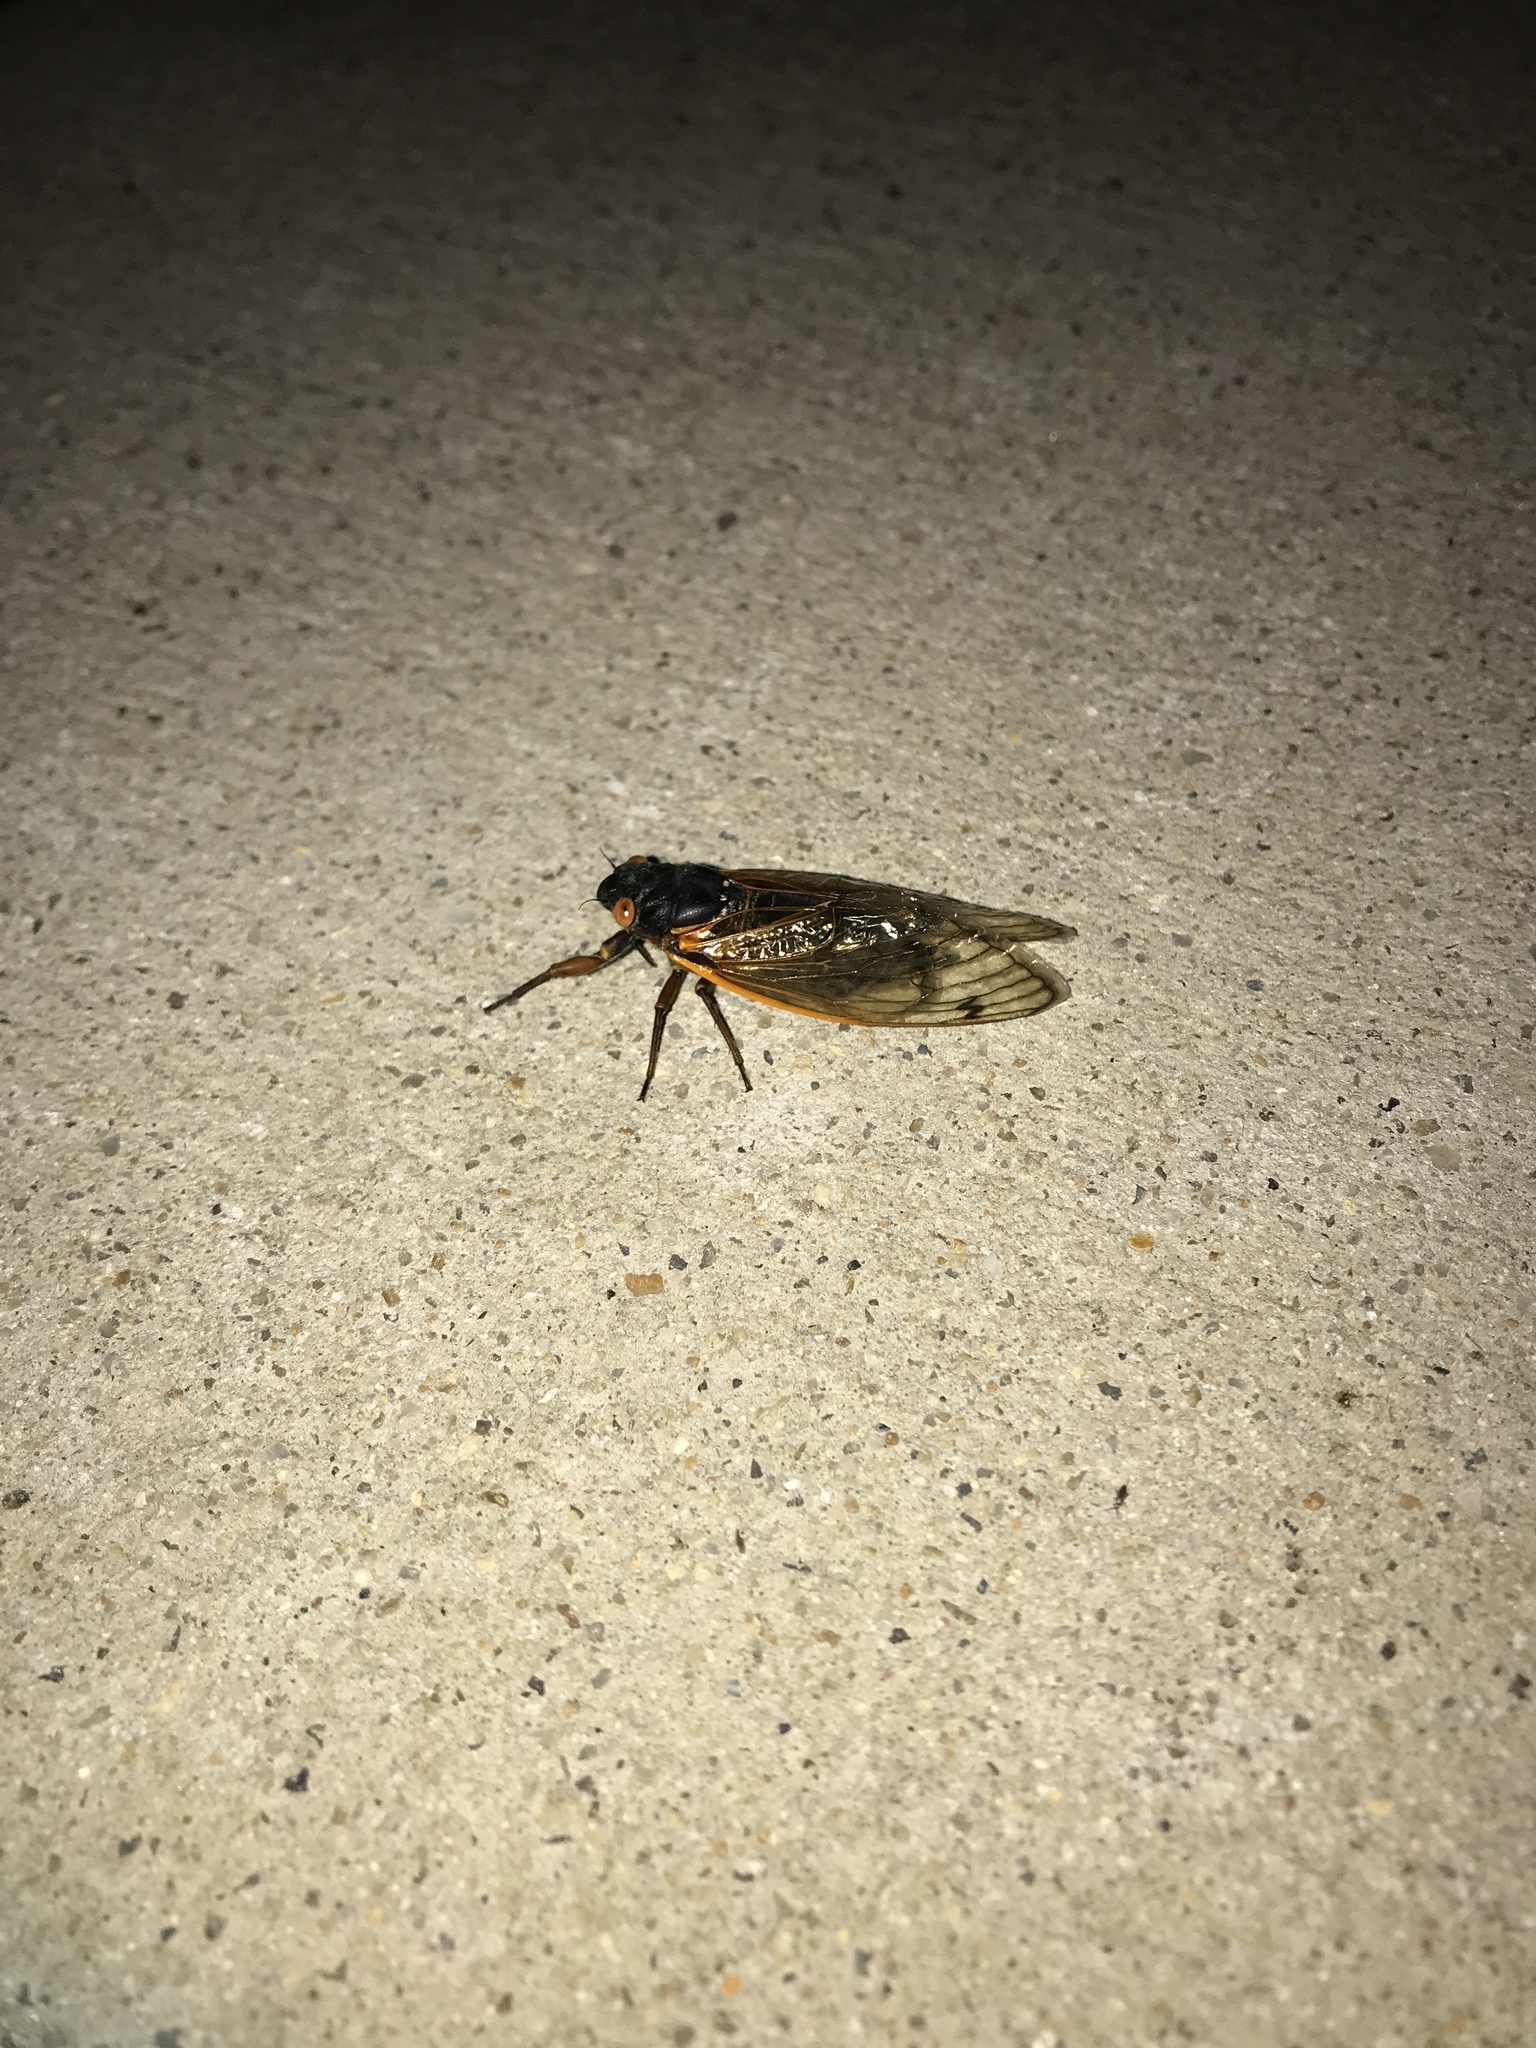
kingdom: Animalia
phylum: Arthropoda
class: Insecta
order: Hemiptera
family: Cicadidae
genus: Magicicada
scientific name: Magicicada septendecim
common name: Periodical cicada
